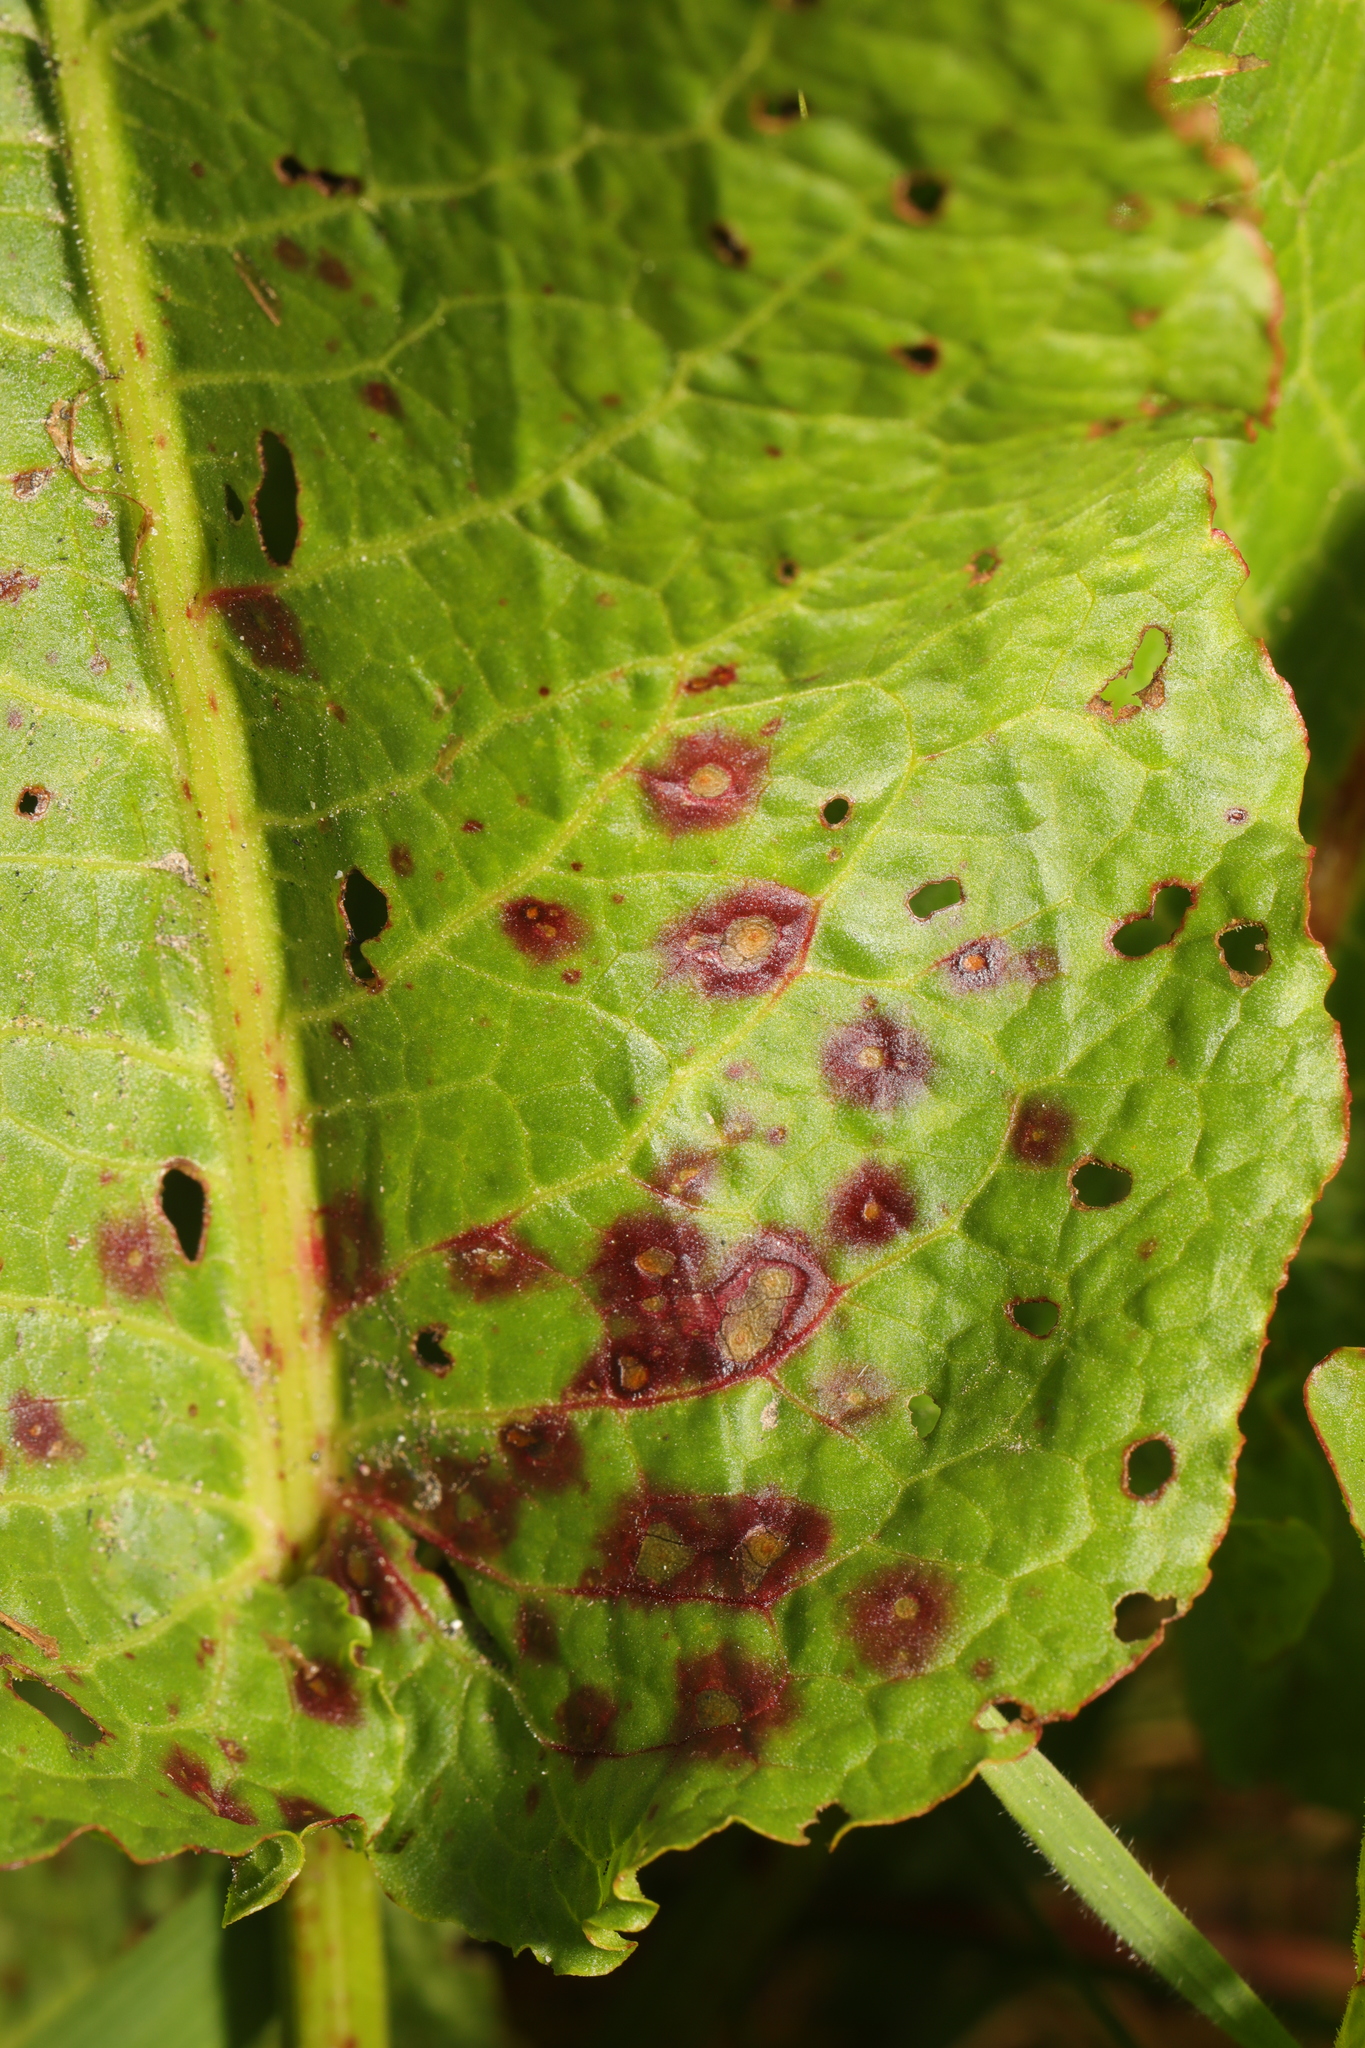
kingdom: Fungi
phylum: Ascomycota
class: Dothideomycetes
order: Mycosphaerellales
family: Mycosphaerellaceae
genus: Ramularia
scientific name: Ramularia rubella
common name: Red dock spot
